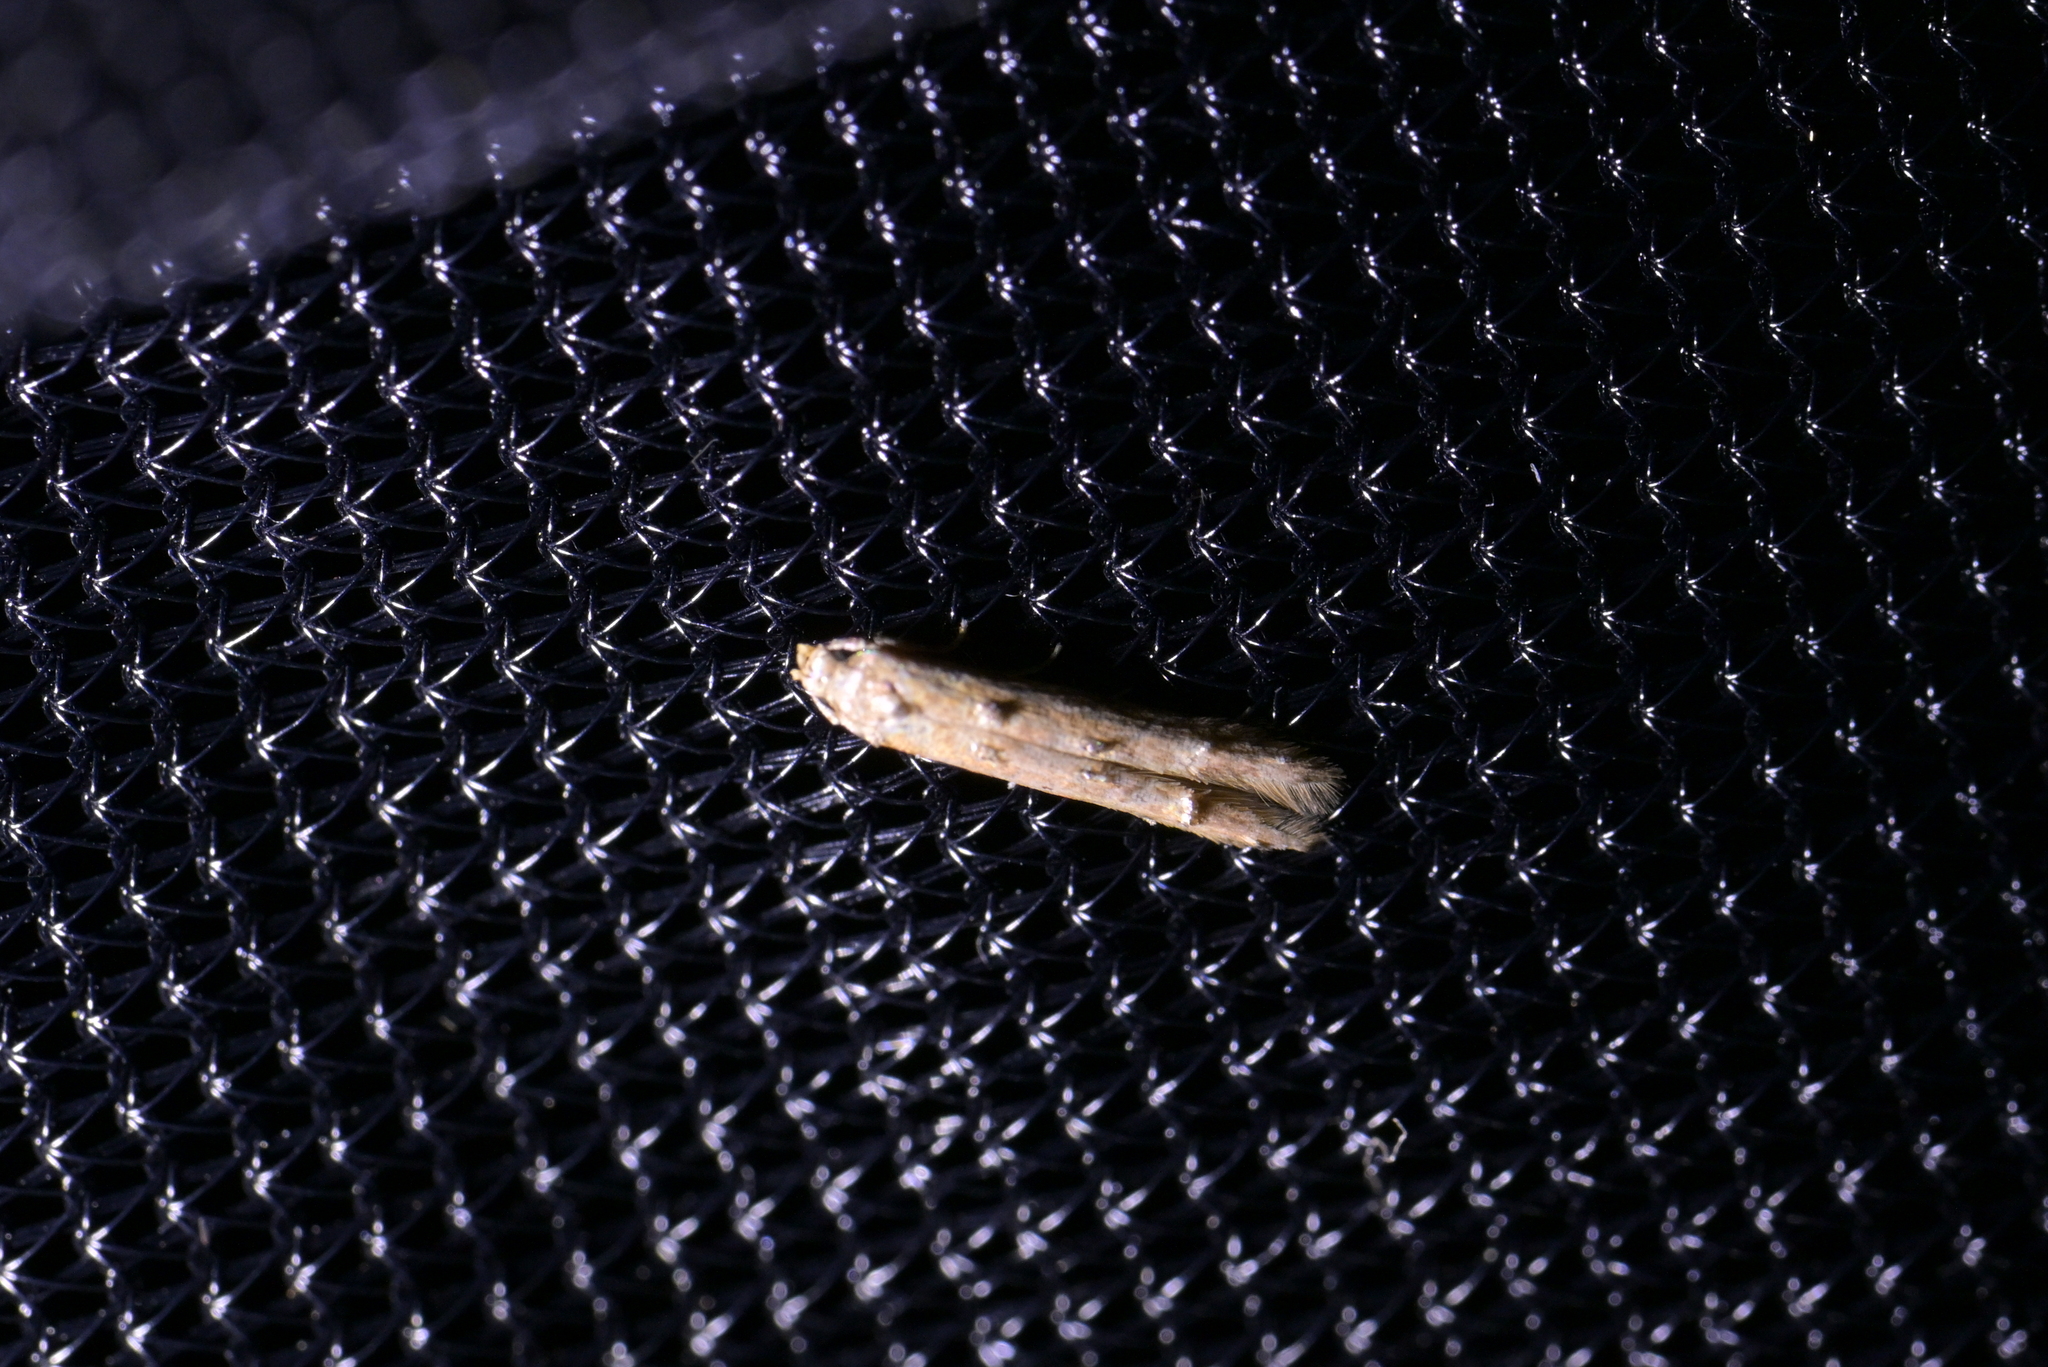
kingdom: Animalia
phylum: Arthropoda
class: Insecta
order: Lepidoptera
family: Elachistidae
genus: Microcolona
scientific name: Microcolona limodes
